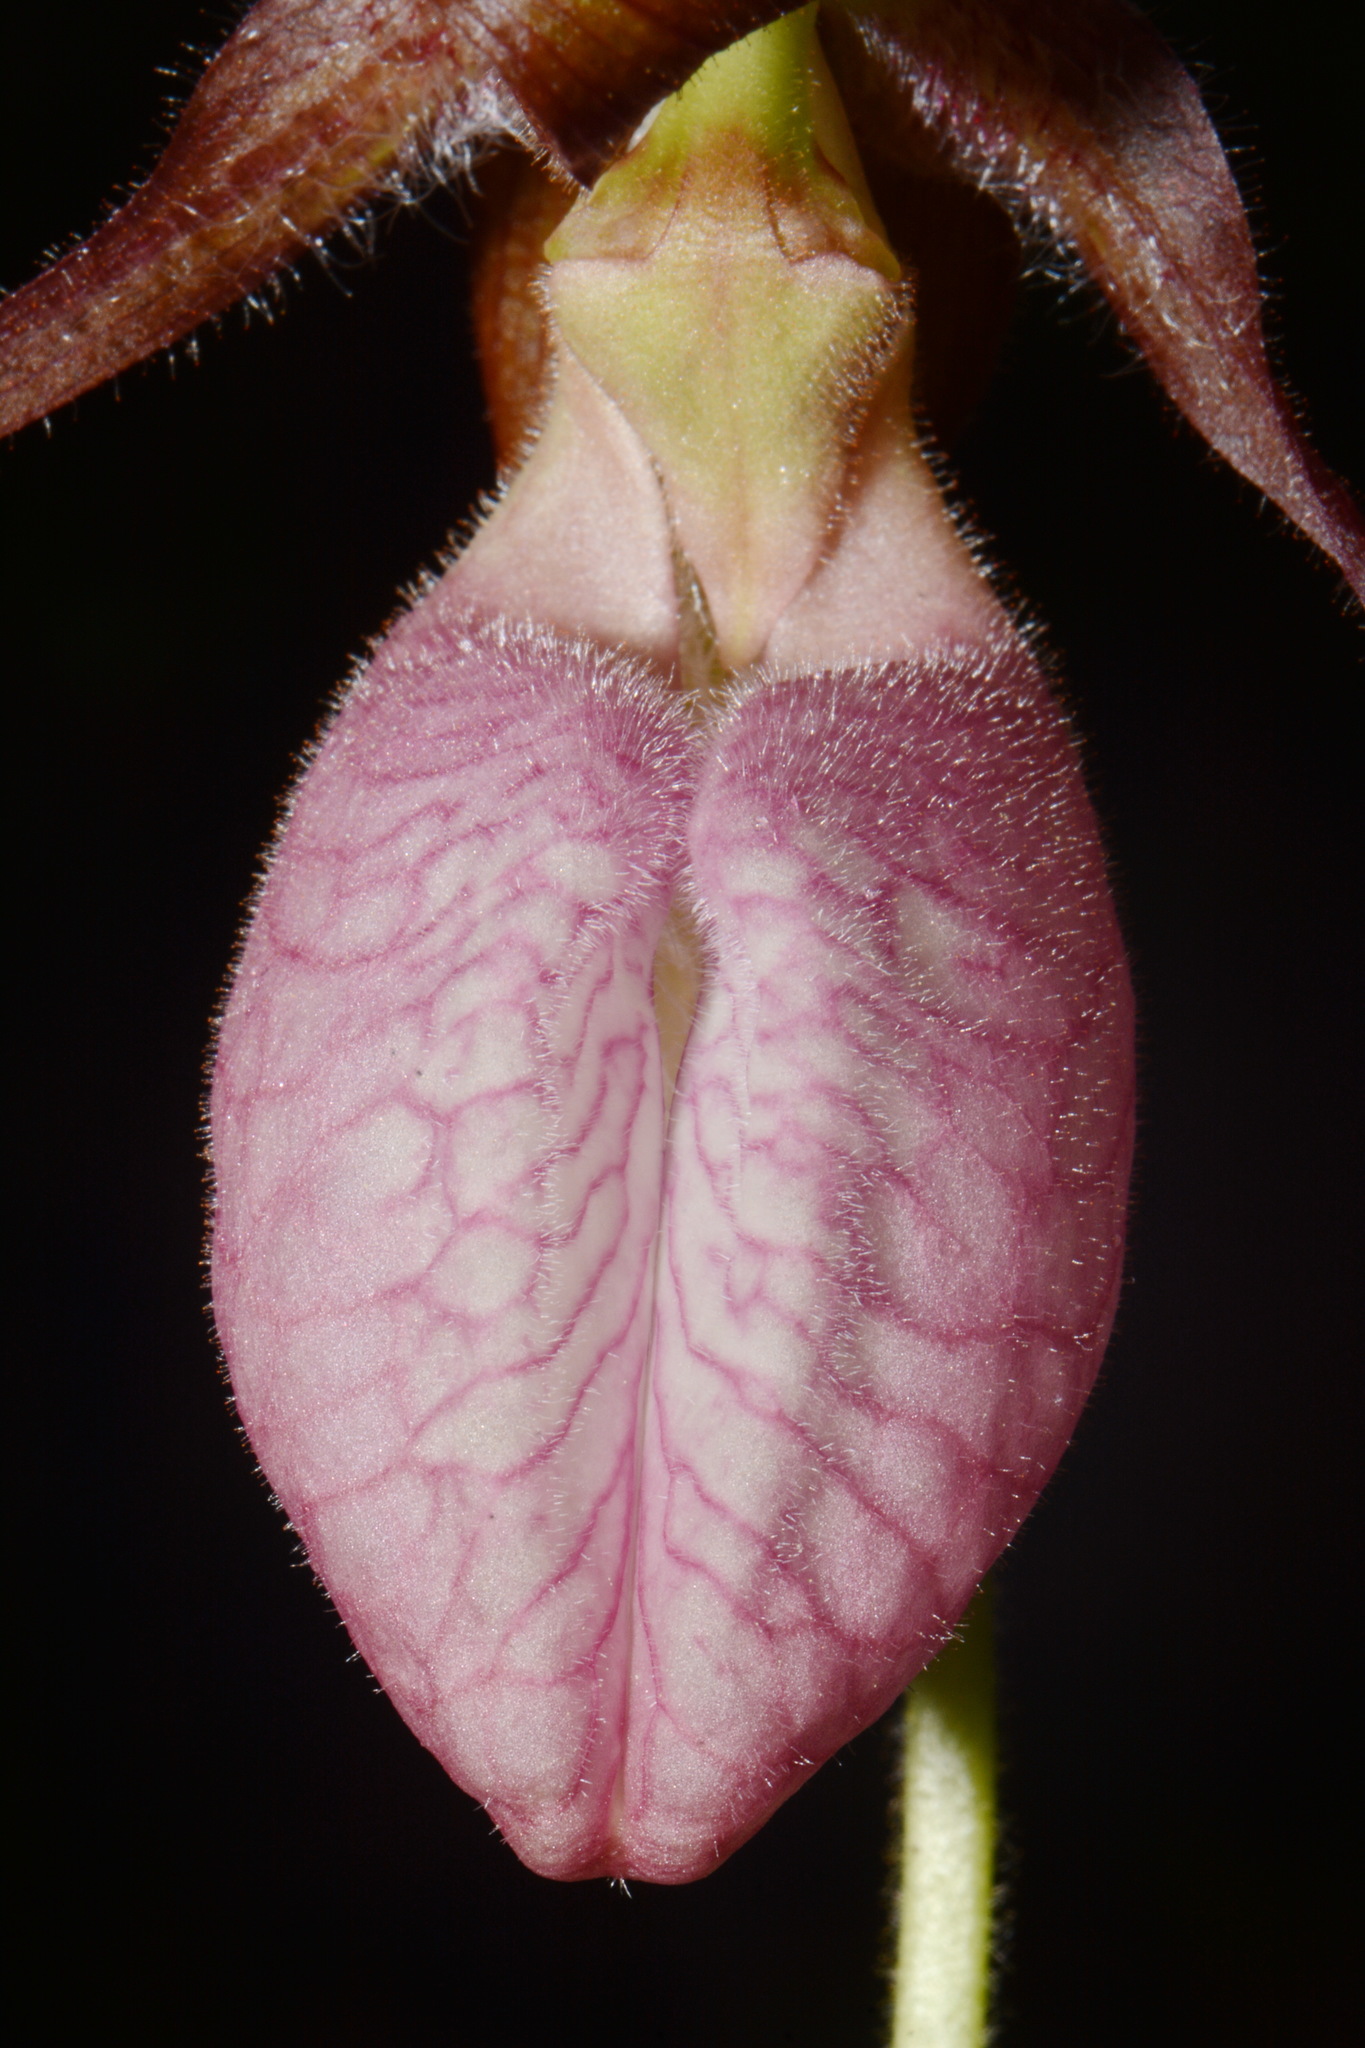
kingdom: Plantae
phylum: Tracheophyta
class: Liliopsida
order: Asparagales
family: Orchidaceae
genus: Cypripedium
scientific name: Cypripedium acaule
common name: Pink lady's-slipper
